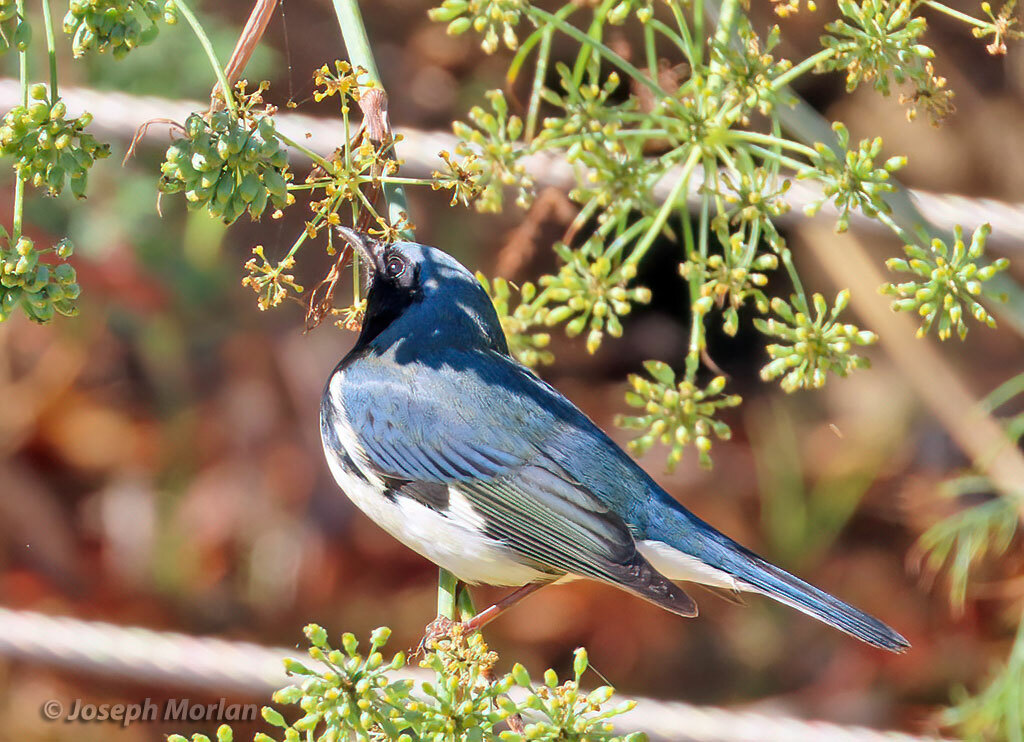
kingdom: Animalia
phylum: Chordata
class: Aves
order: Passeriformes
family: Parulidae
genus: Setophaga
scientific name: Setophaga caerulescens
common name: Black-throated blue warbler
